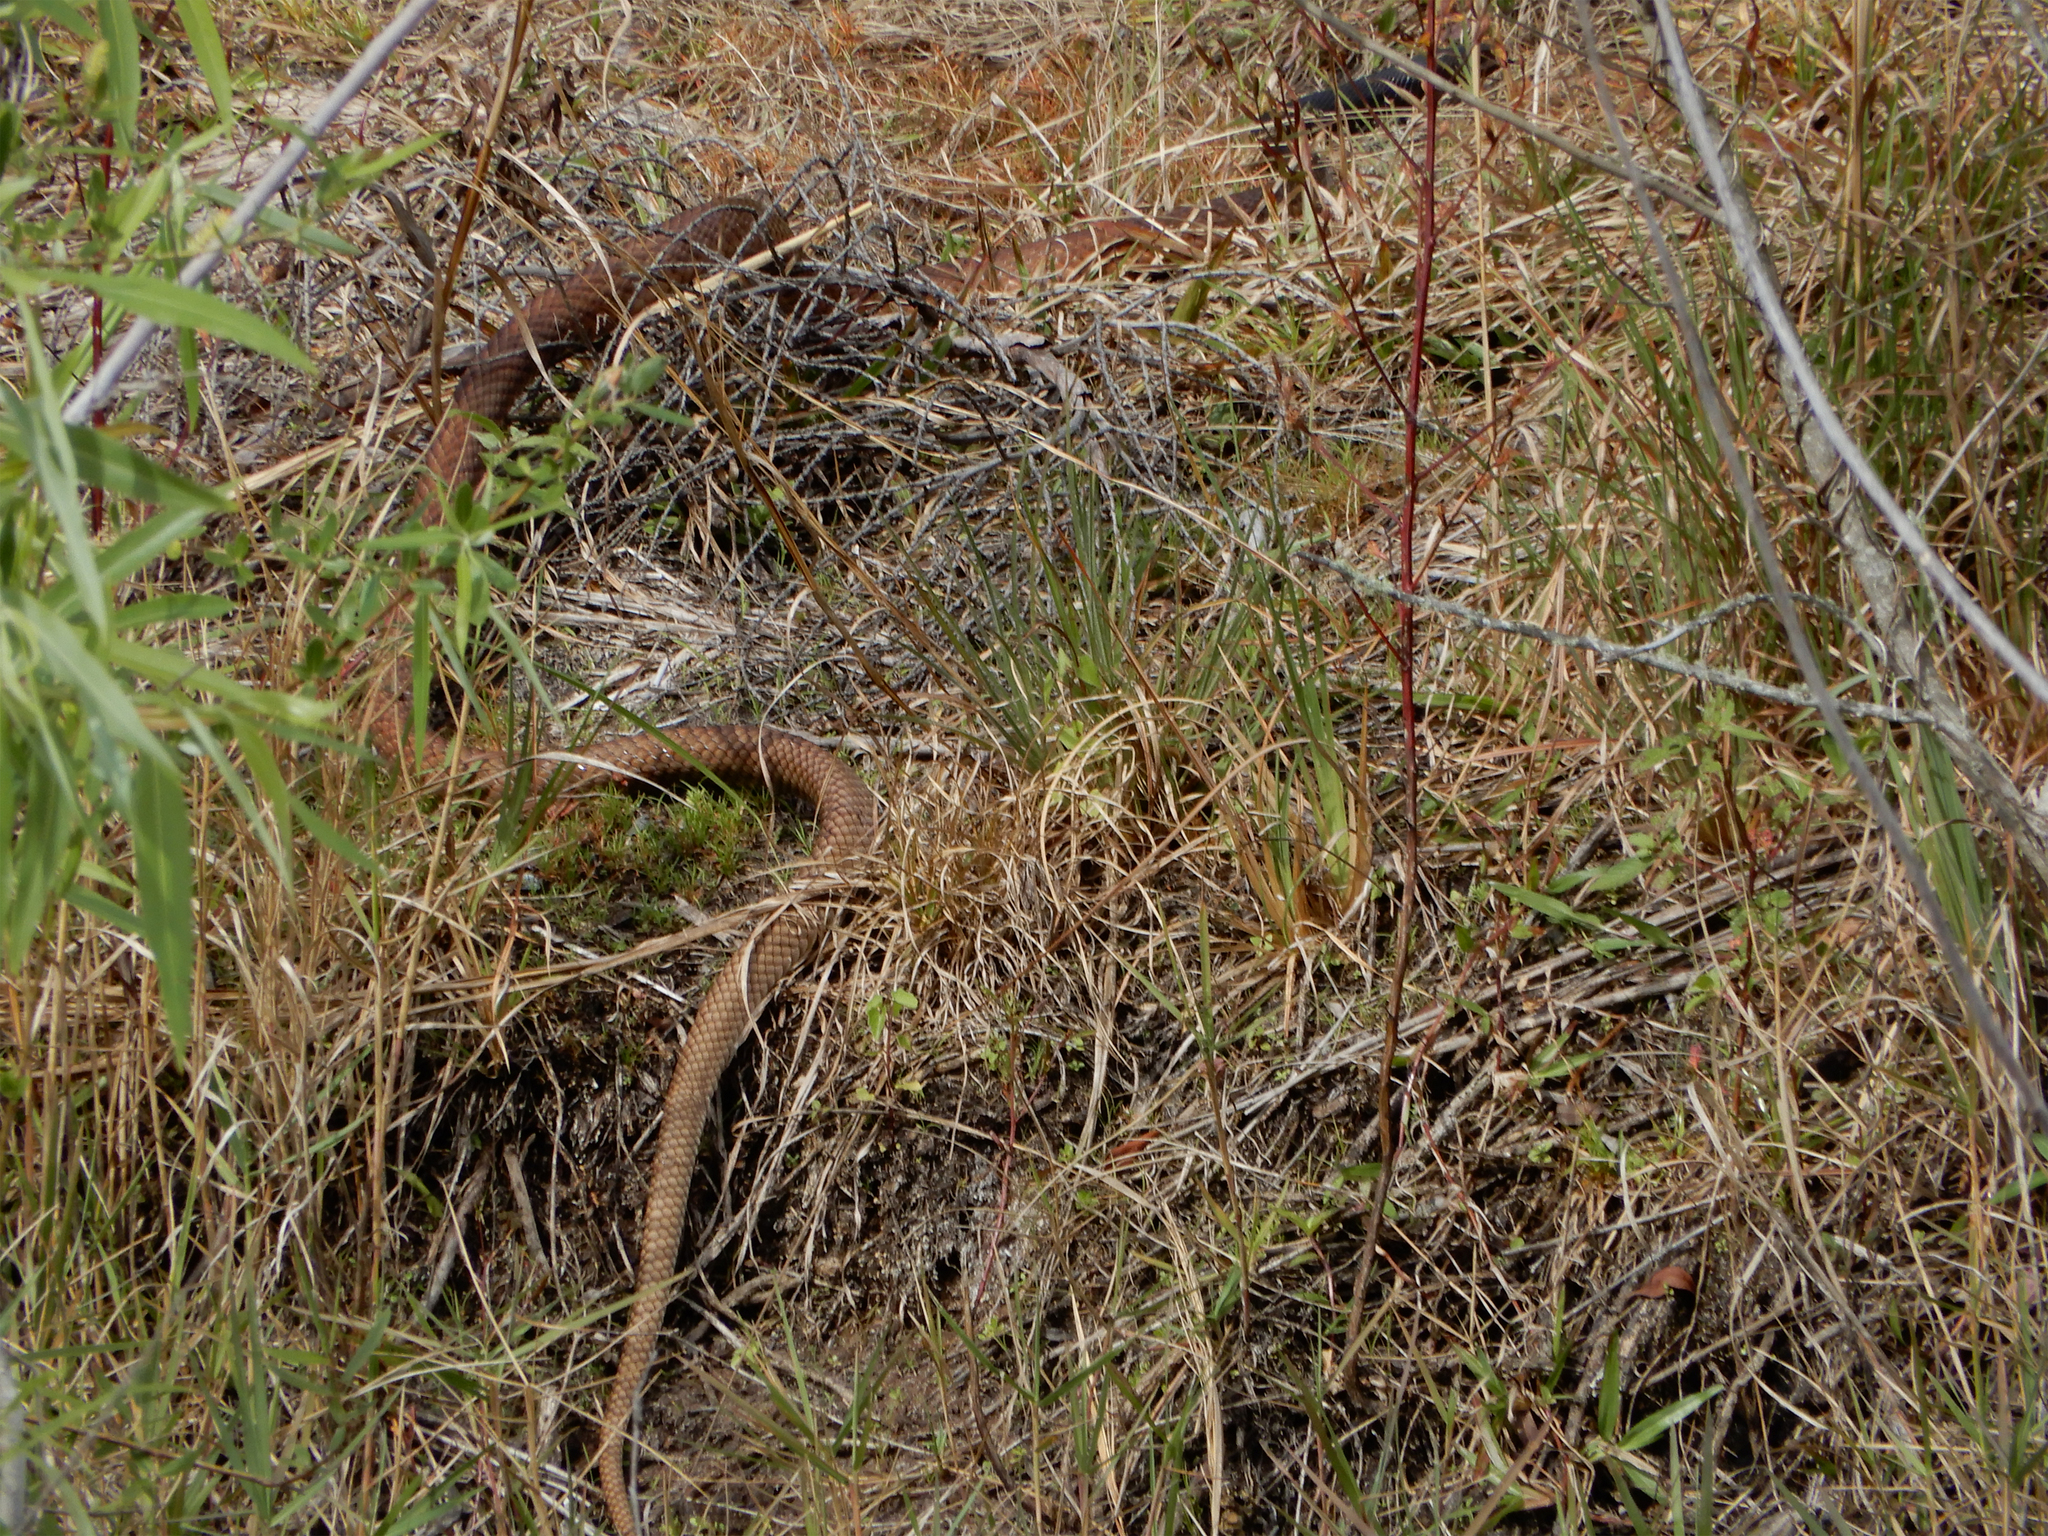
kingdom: Animalia
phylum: Chordata
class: Squamata
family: Colubridae
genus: Masticophis
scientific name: Masticophis flagellum
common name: Coachwhip
